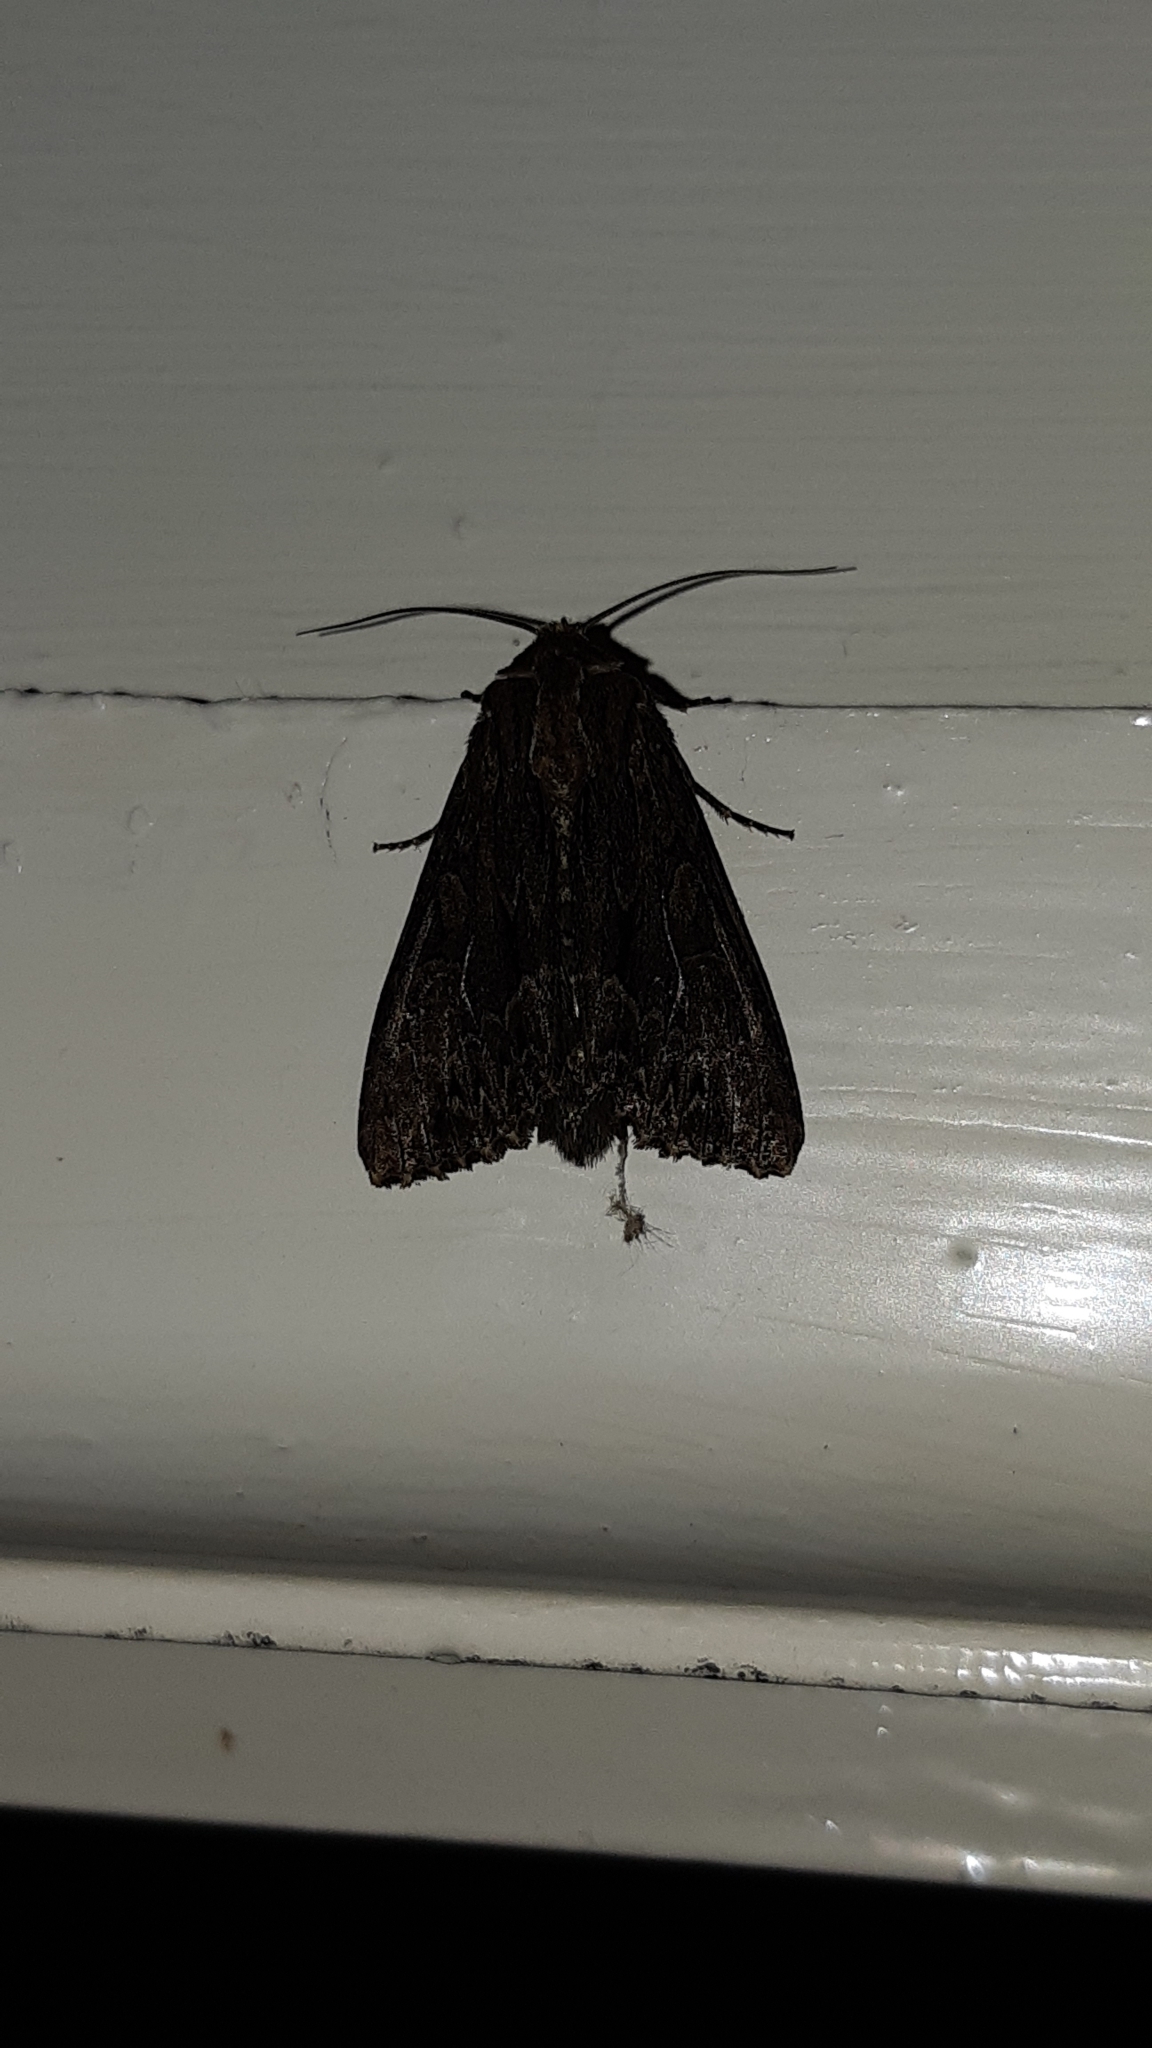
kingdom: Animalia
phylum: Arthropoda
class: Insecta
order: Lepidoptera
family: Noctuidae
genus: Apamea
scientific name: Apamea monoglypha
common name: Dark arches
